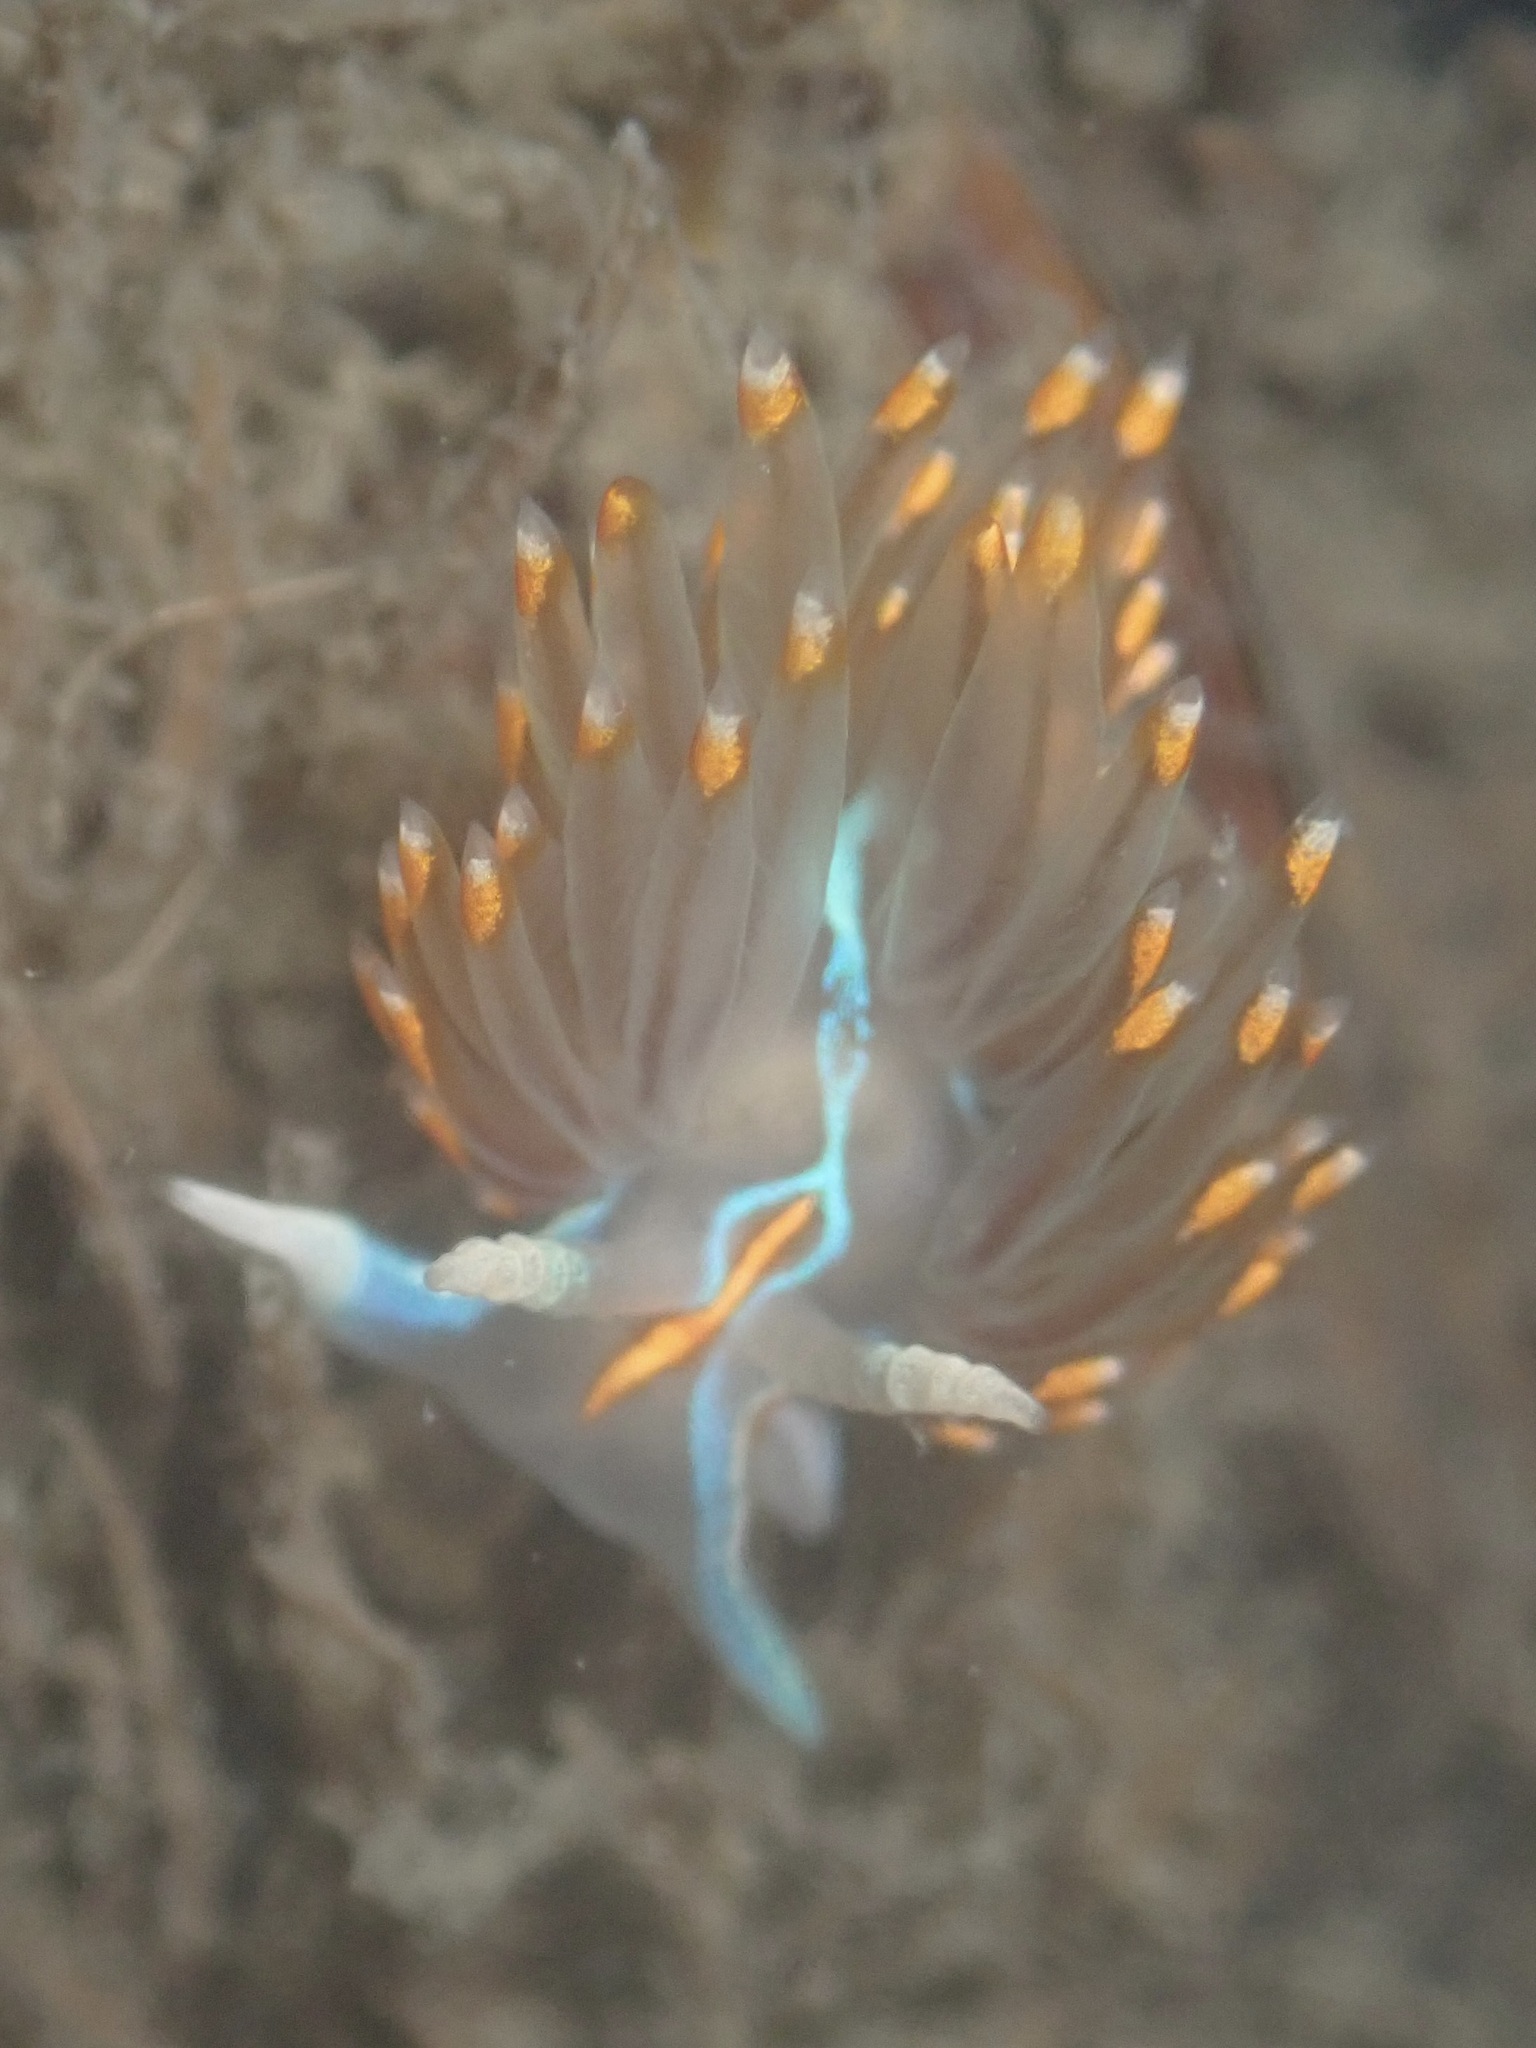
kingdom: Animalia
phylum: Mollusca
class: Gastropoda
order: Nudibranchia
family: Myrrhinidae
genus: Hermissenda
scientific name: Hermissenda opalescens
